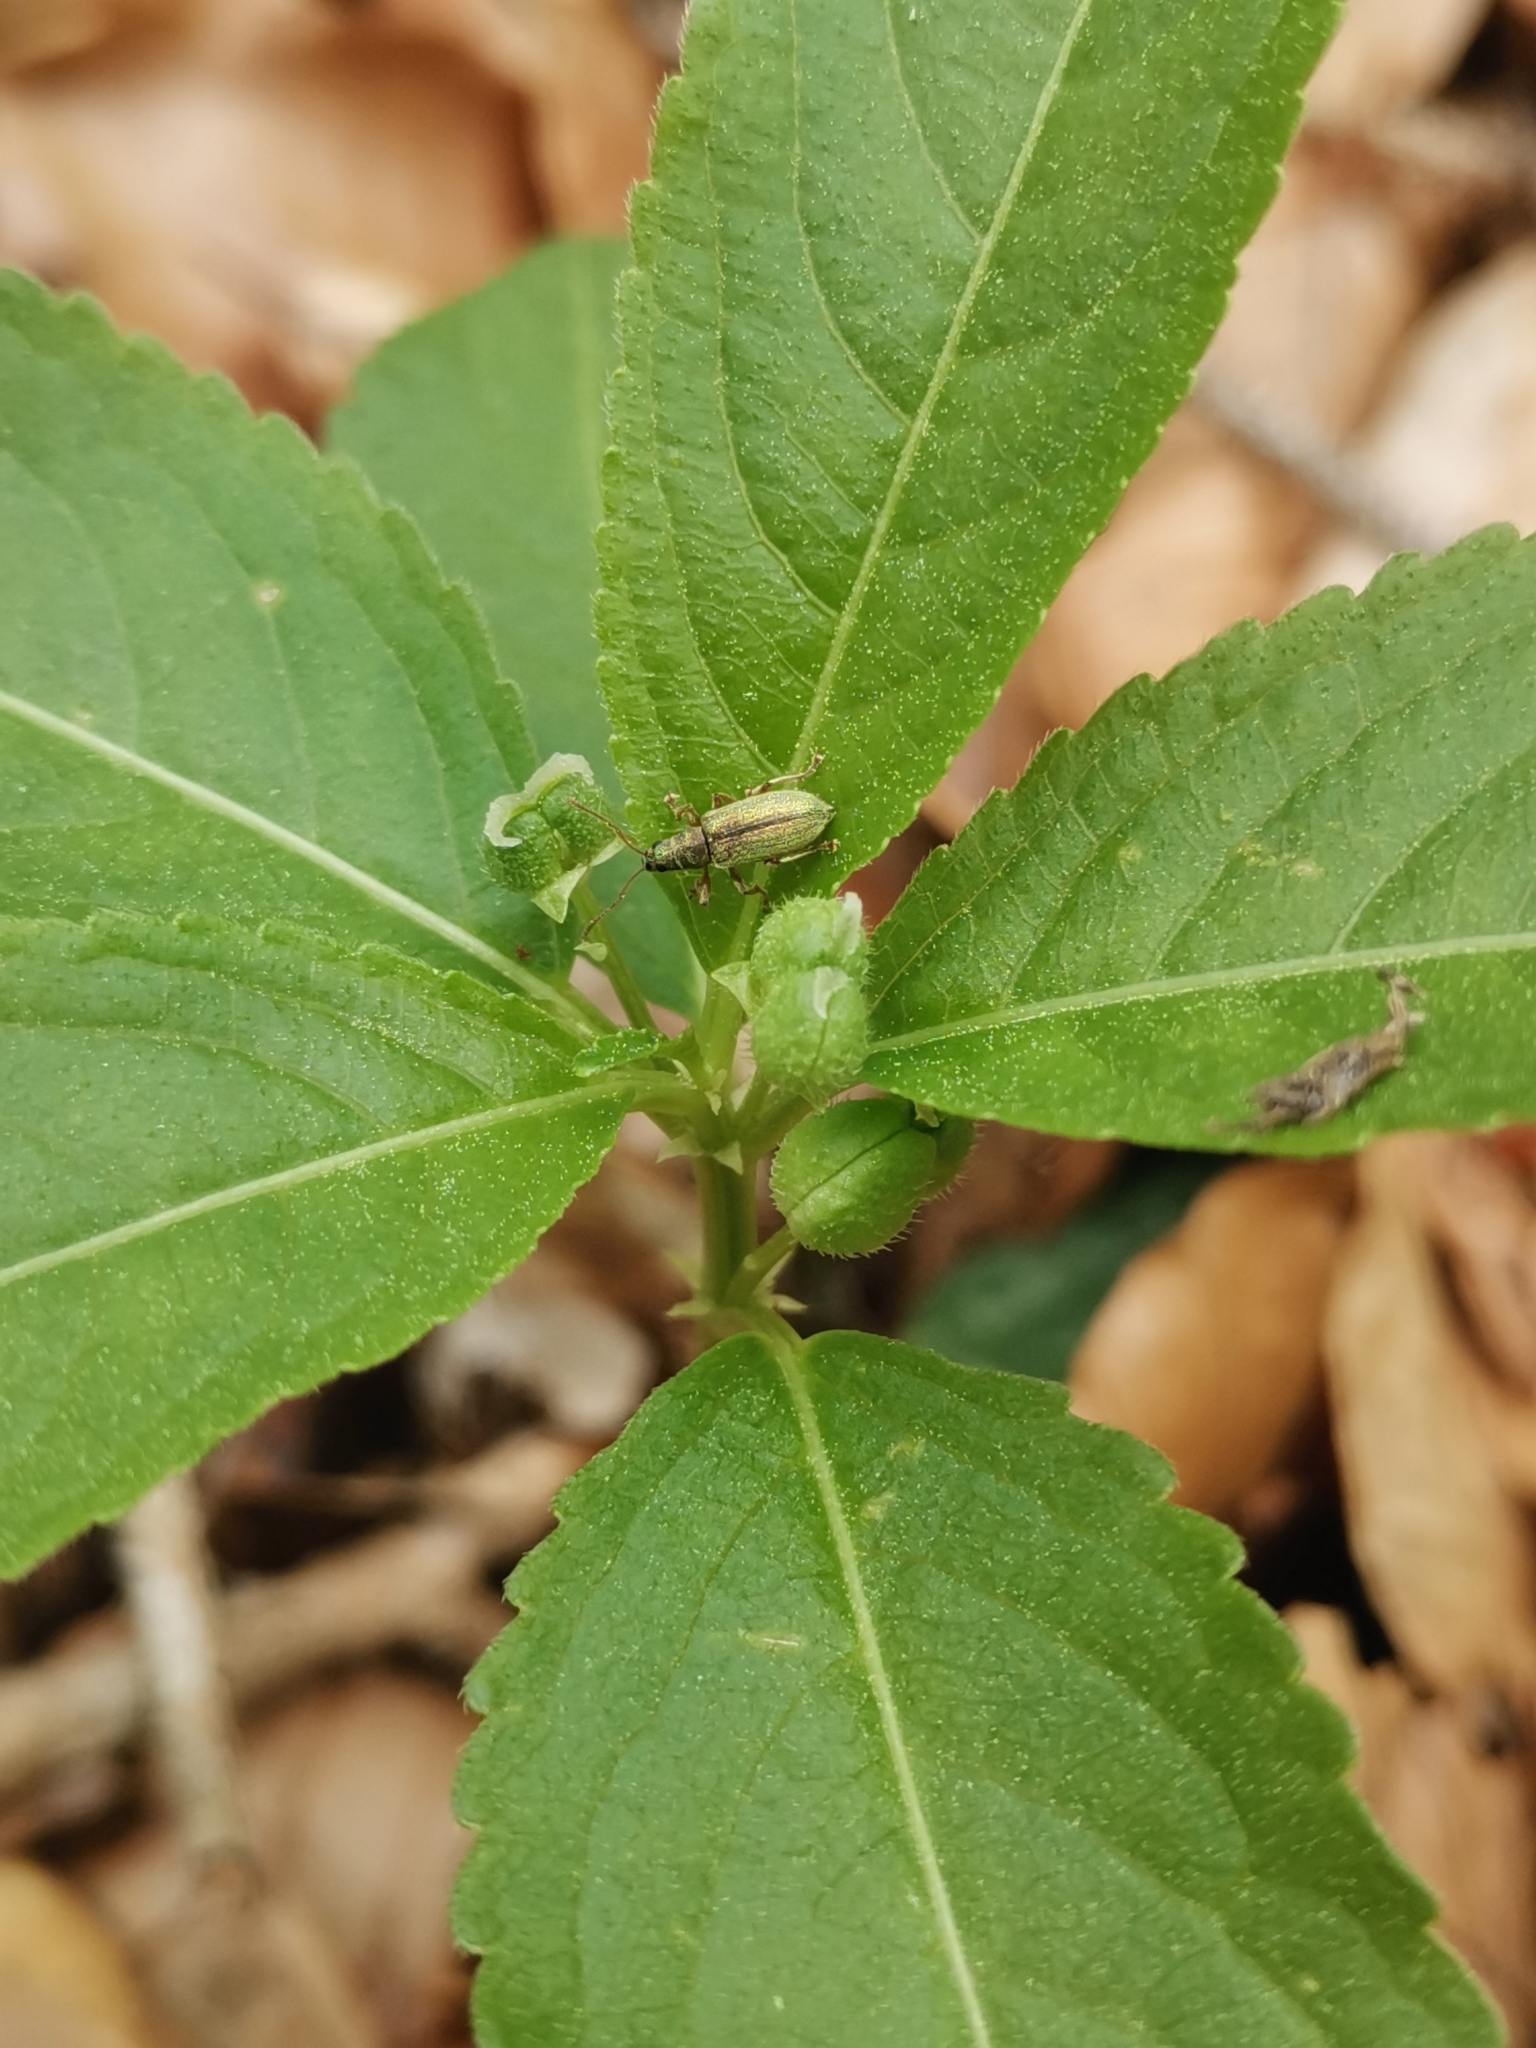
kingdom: Plantae
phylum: Tracheophyta
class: Magnoliopsida
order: Malpighiales
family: Euphorbiaceae
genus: Mercurialis
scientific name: Mercurialis perennis
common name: Dog mercury
